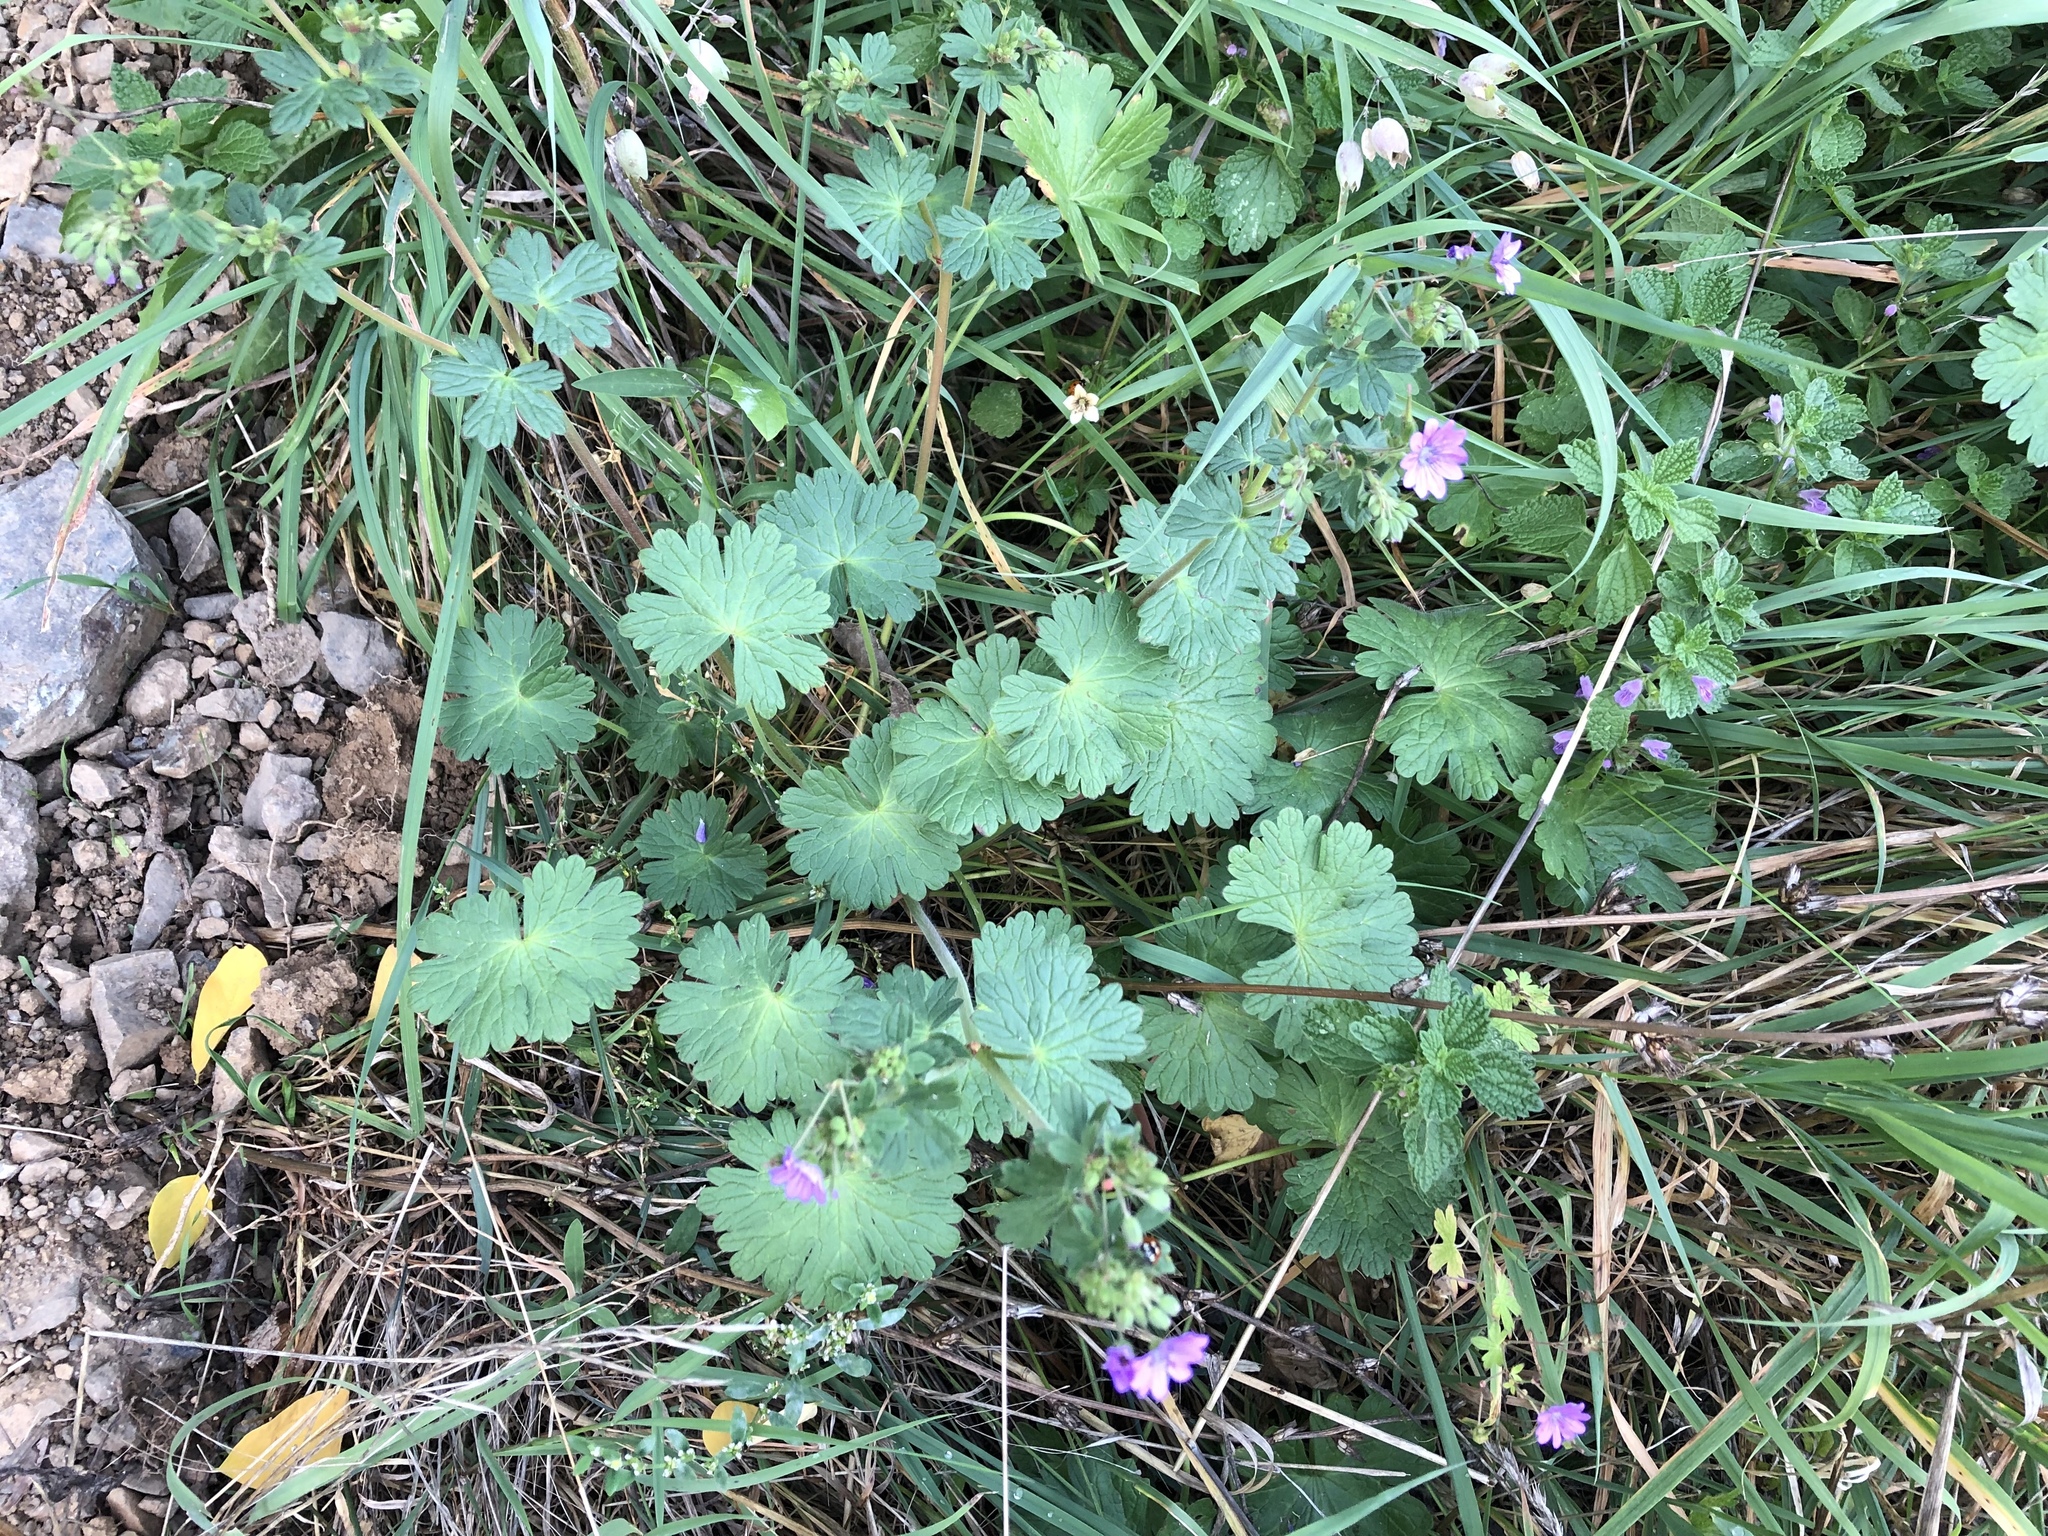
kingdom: Plantae
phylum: Tracheophyta
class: Magnoliopsida
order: Geraniales
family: Geraniaceae
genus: Geranium
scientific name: Geranium pyrenaicum
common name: Hedgerow crane's-bill
